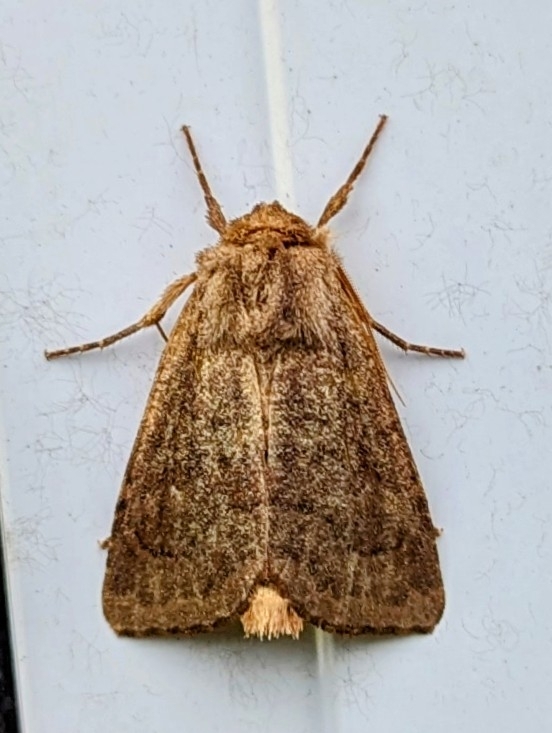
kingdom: Animalia
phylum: Arthropoda
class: Insecta
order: Lepidoptera
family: Noctuidae
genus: Nephelodes
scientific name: Nephelodes minians
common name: Bronzed cutworm
